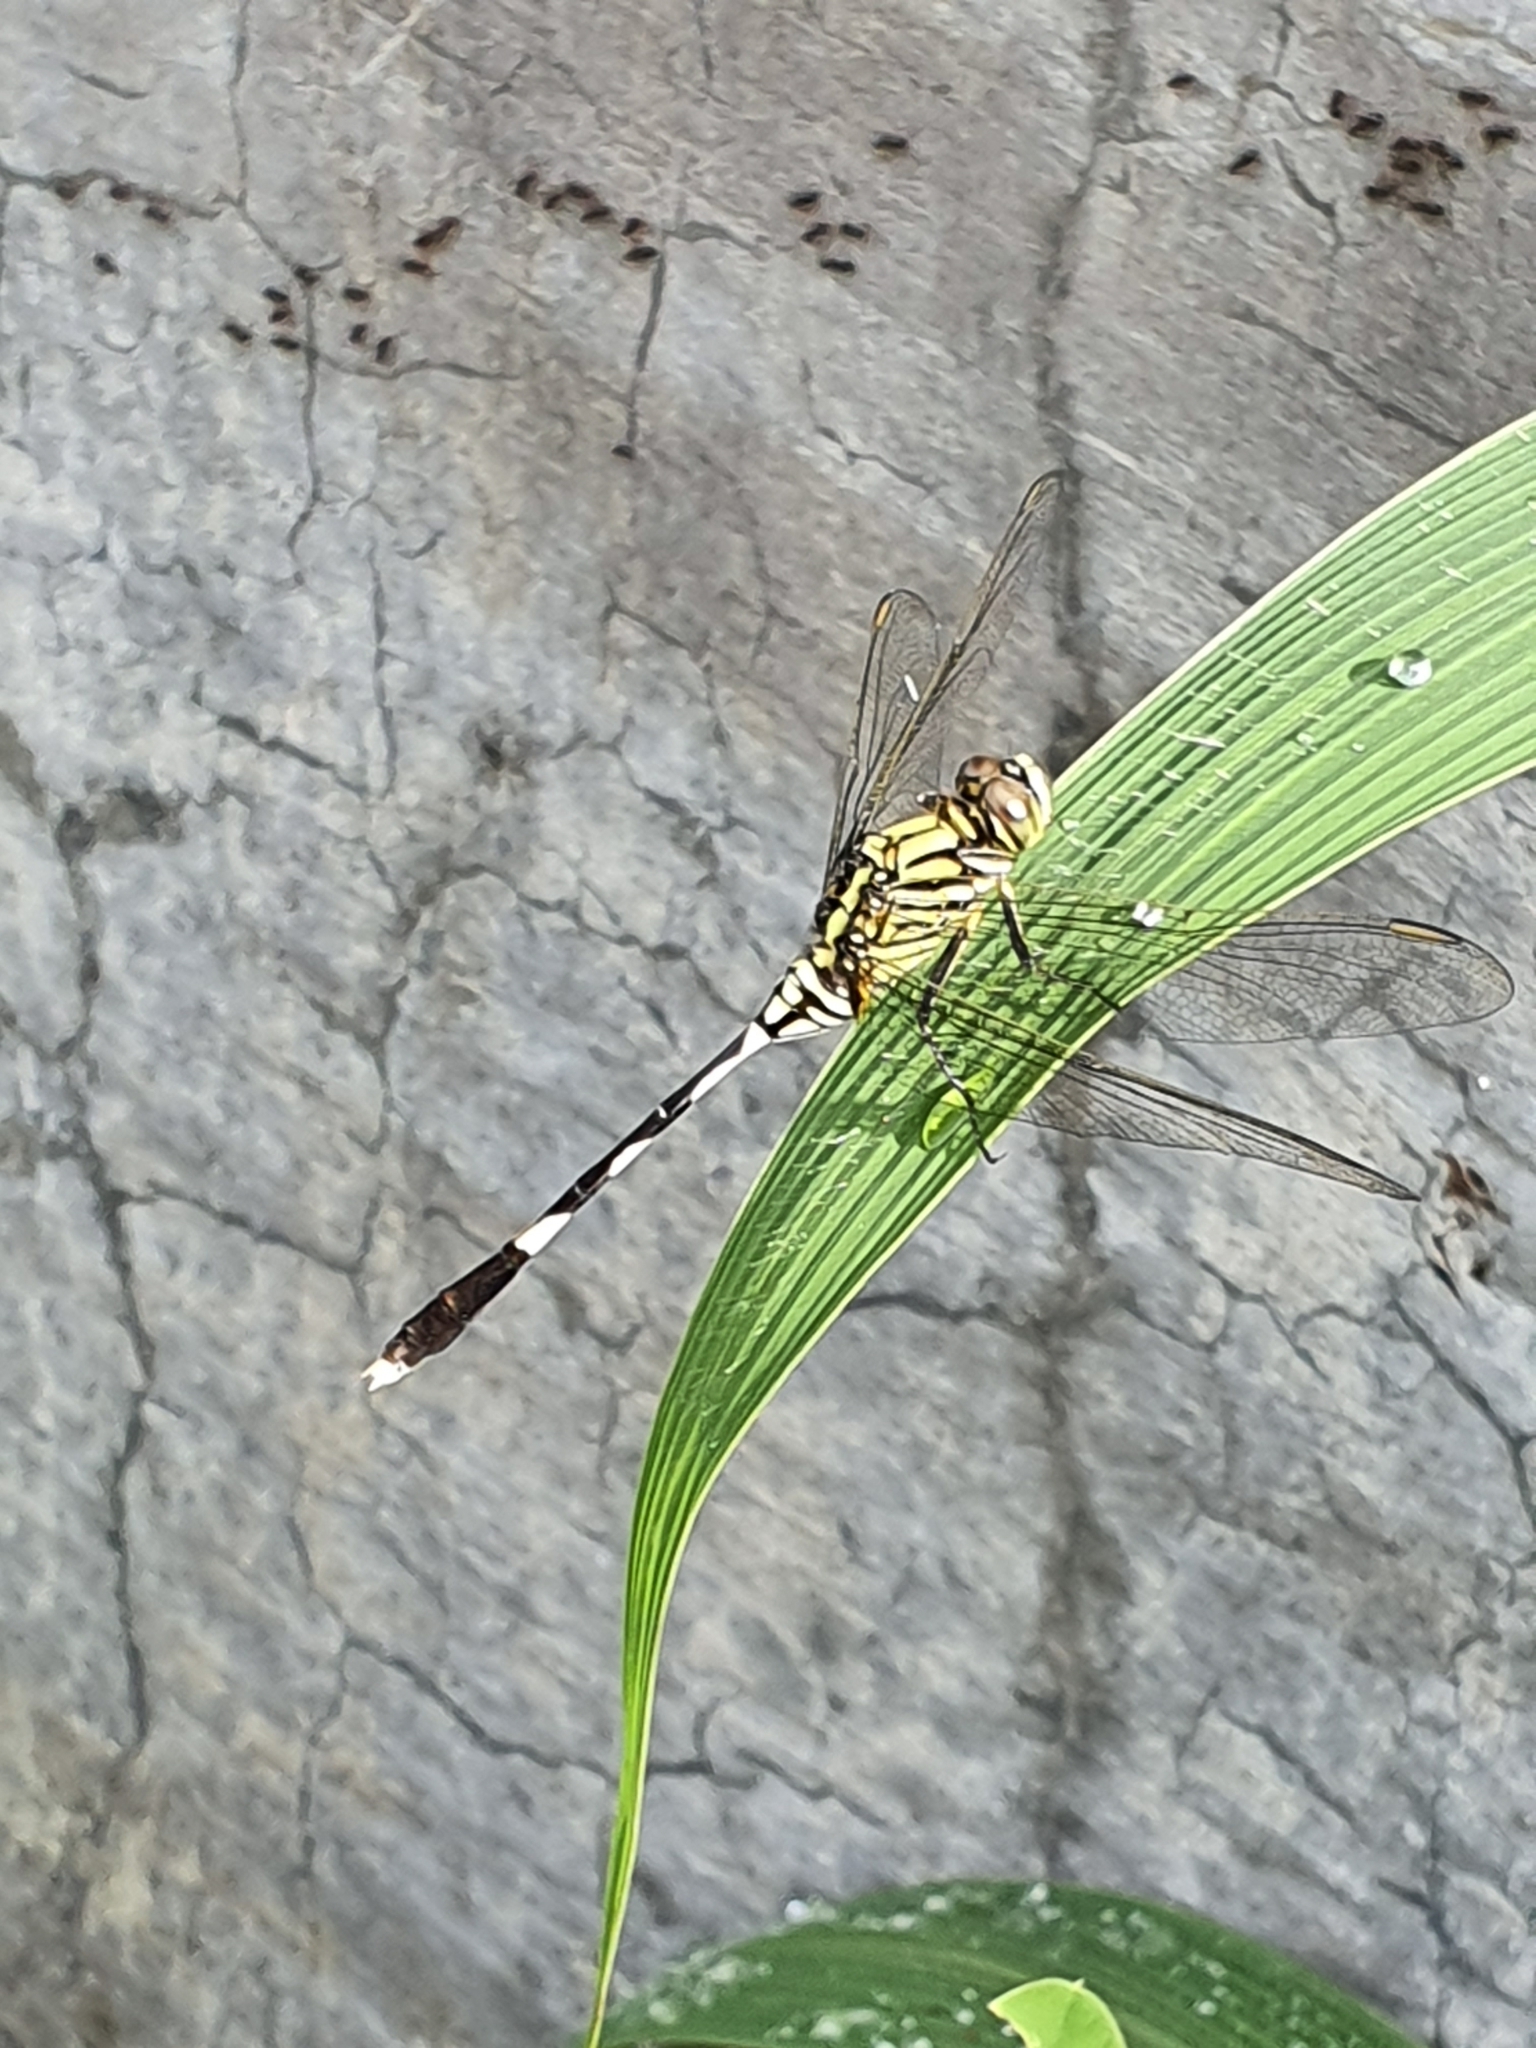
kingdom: Animalia
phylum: Arthropoda
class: Insecta
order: Odonata
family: Libellulidae
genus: Orthetrum
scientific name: Orthetrum sabina
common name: Slender skimmer
